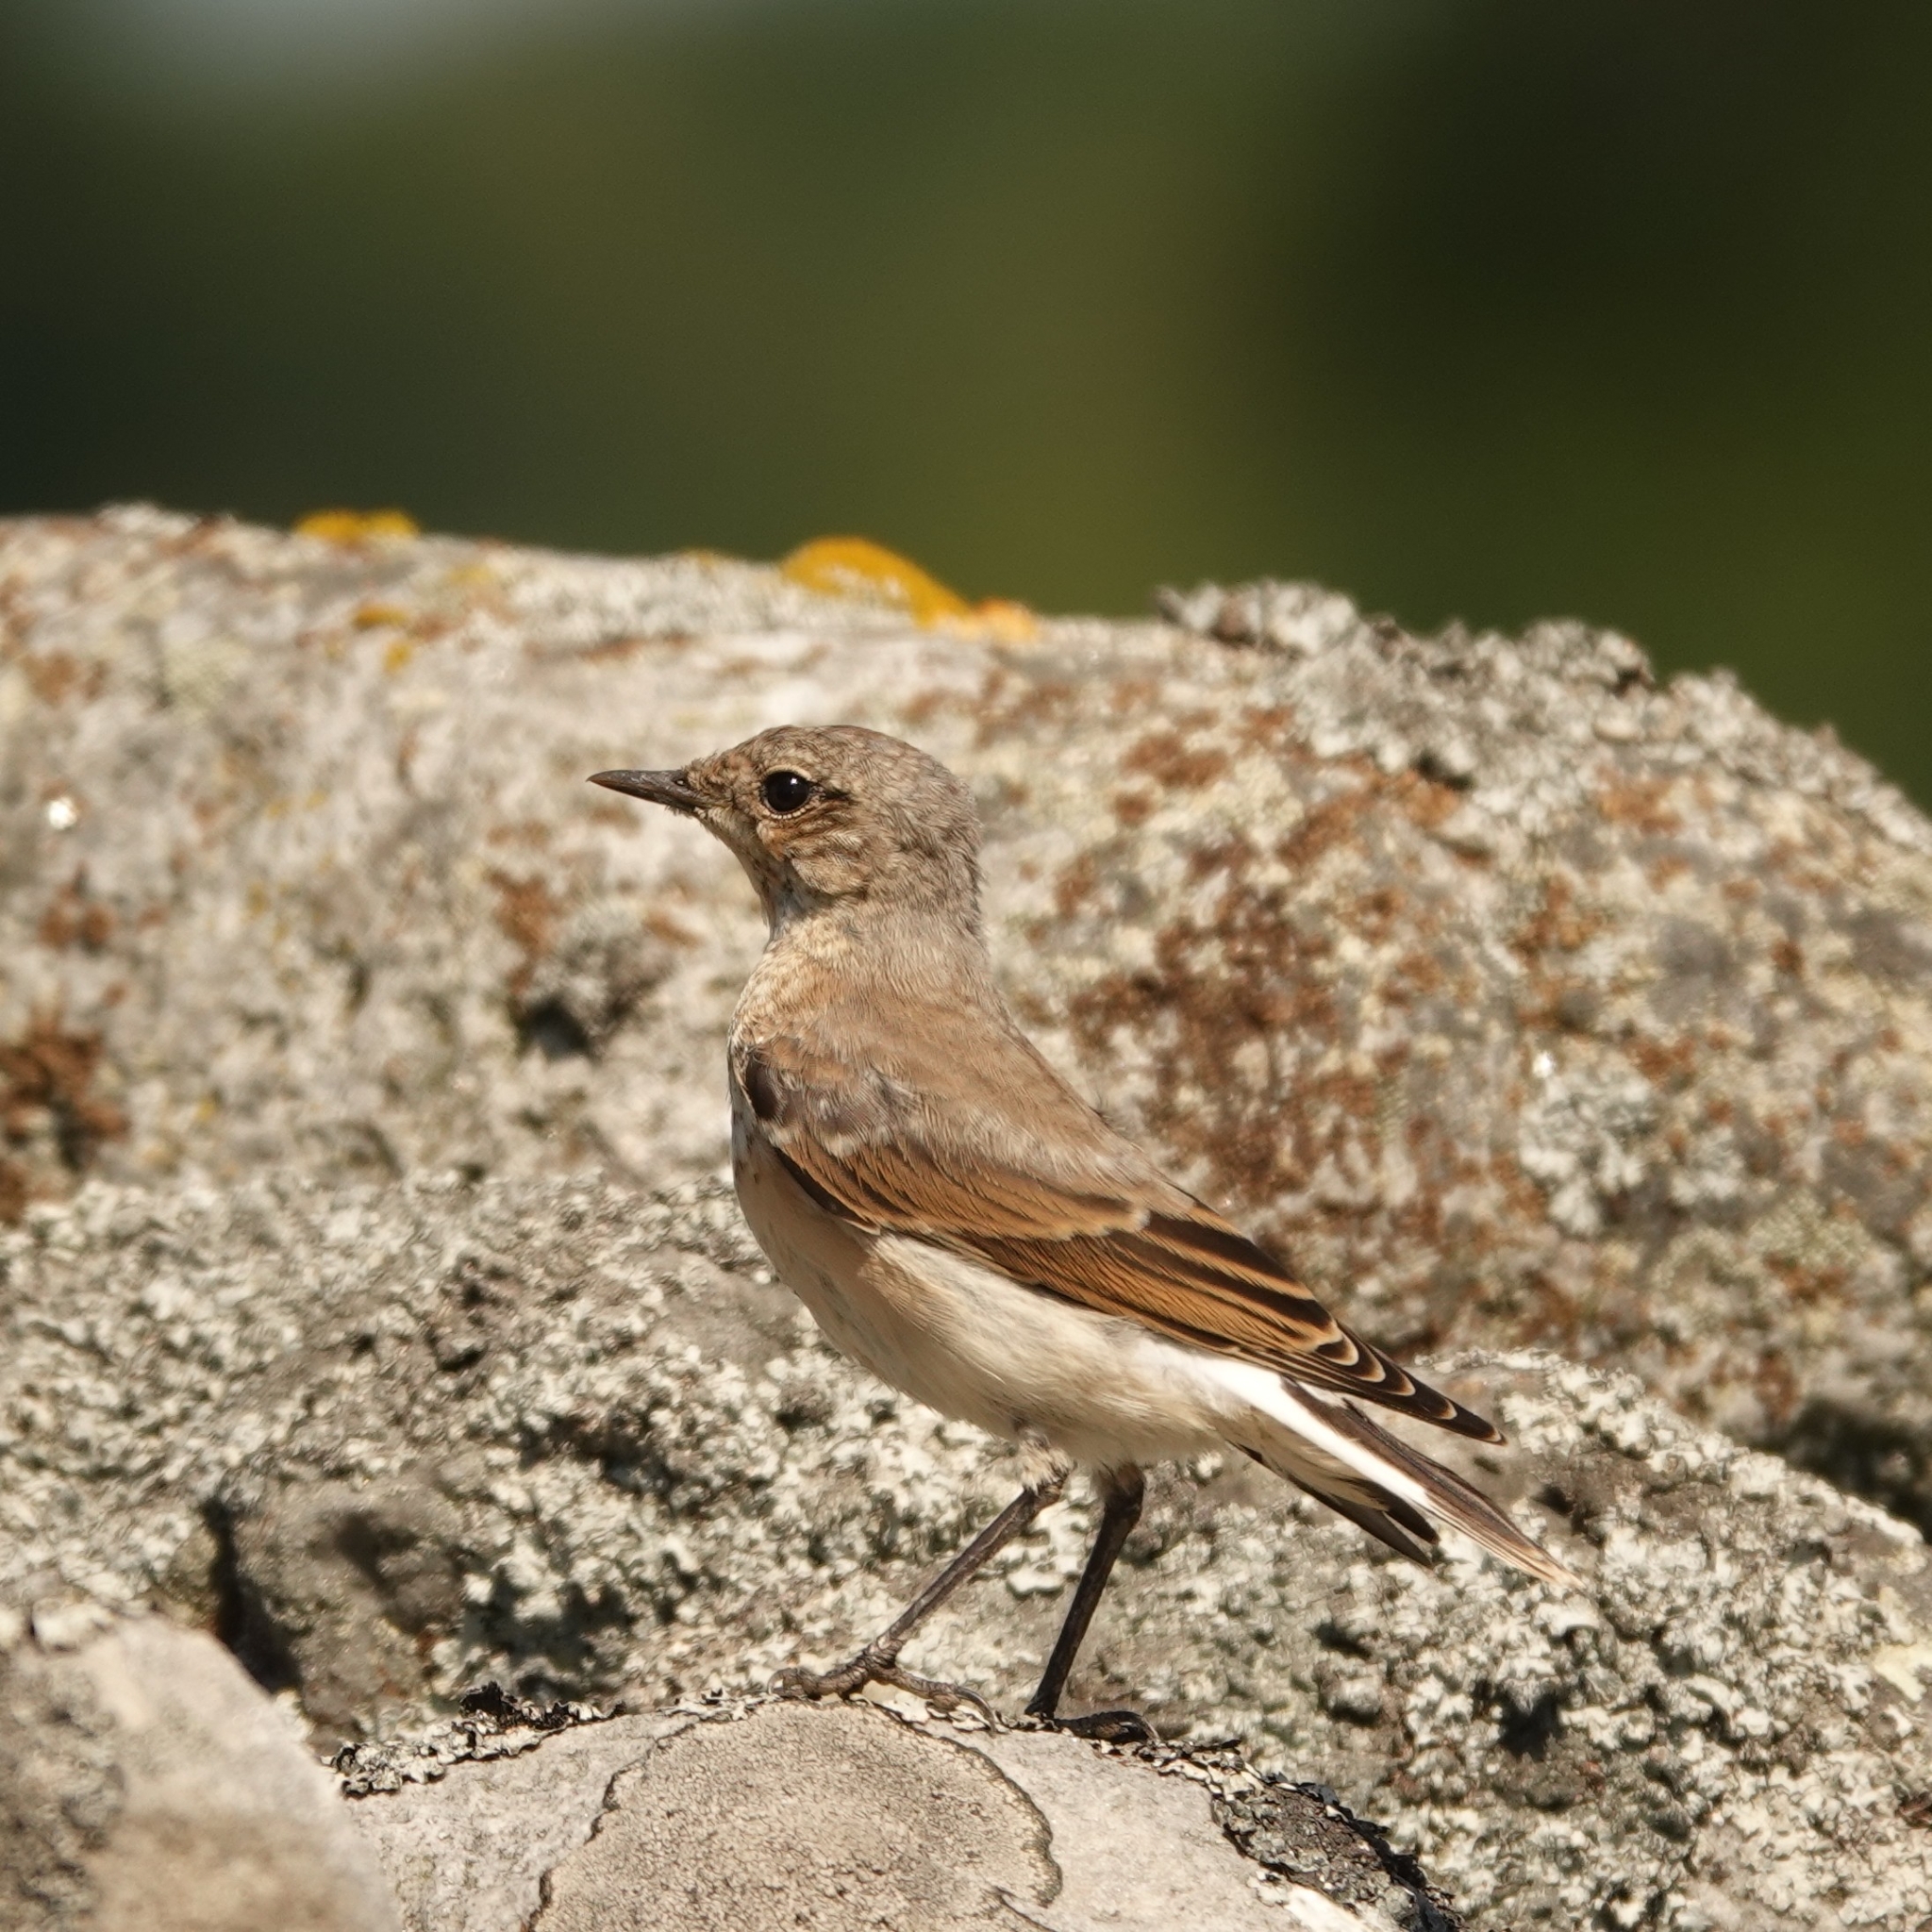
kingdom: Animalia
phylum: Chordata
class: Aves
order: Passeriformes
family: Muscicapidae
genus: Oenanthe
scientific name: Oenanthe oenanthe
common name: Northern wheatear
